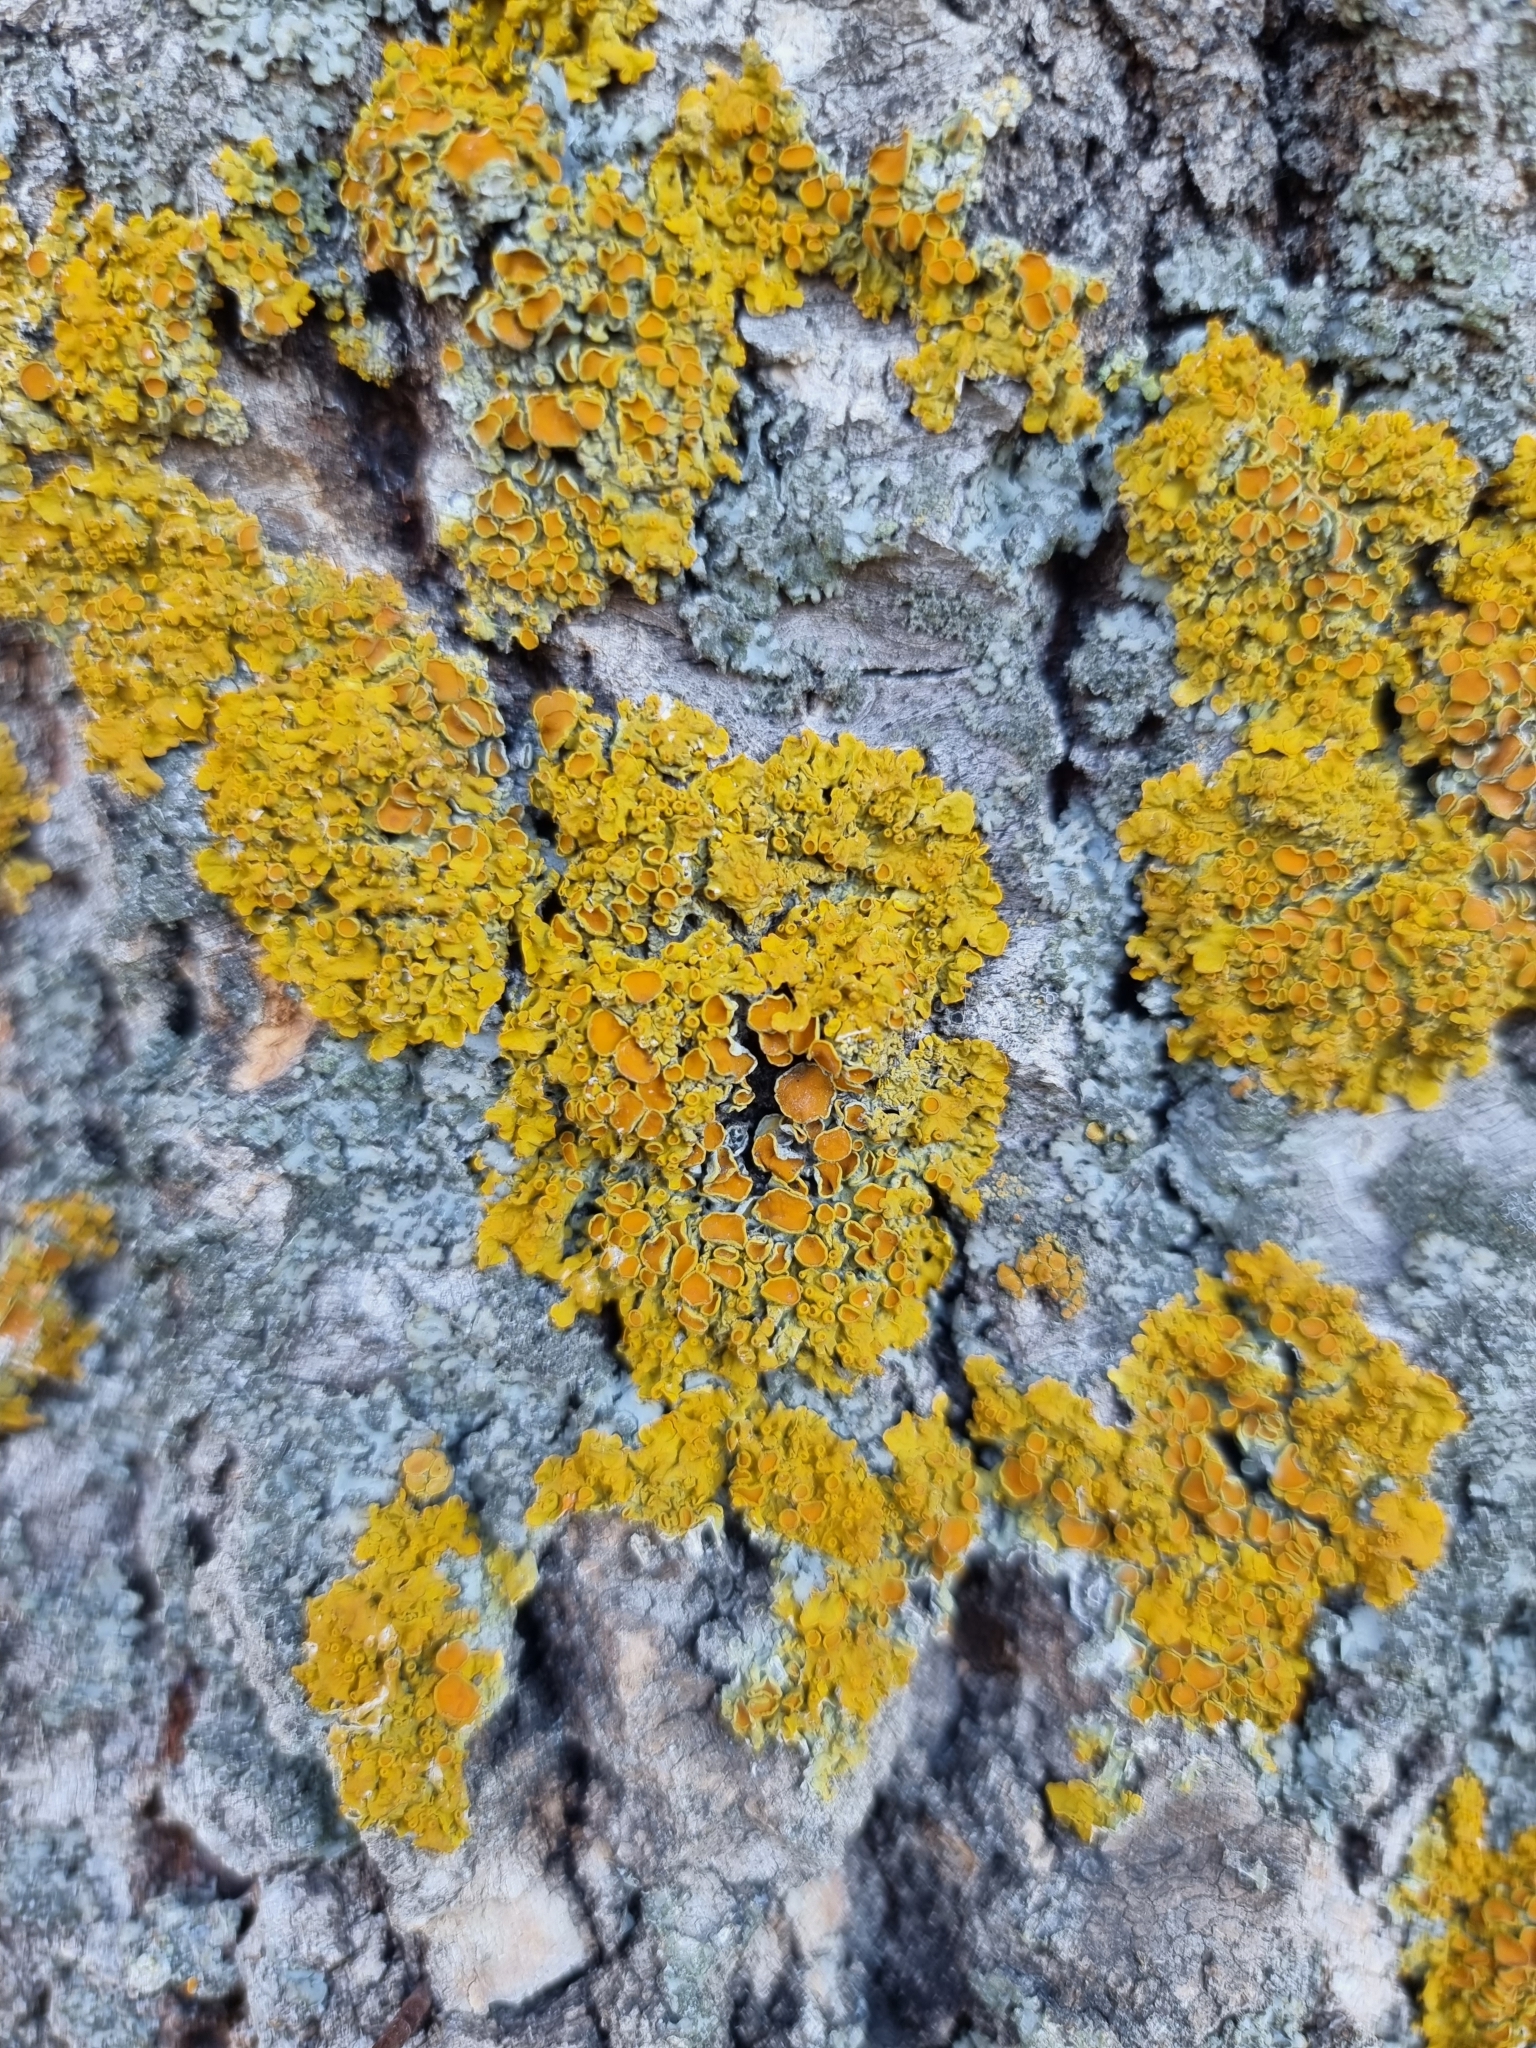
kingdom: Fungi
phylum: Ascomycota
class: Lecanoromycetes
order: Teloschistales
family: Teloschistaceae
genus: Xanthoria
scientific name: Xanthoria parietina
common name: Common orange lichen
